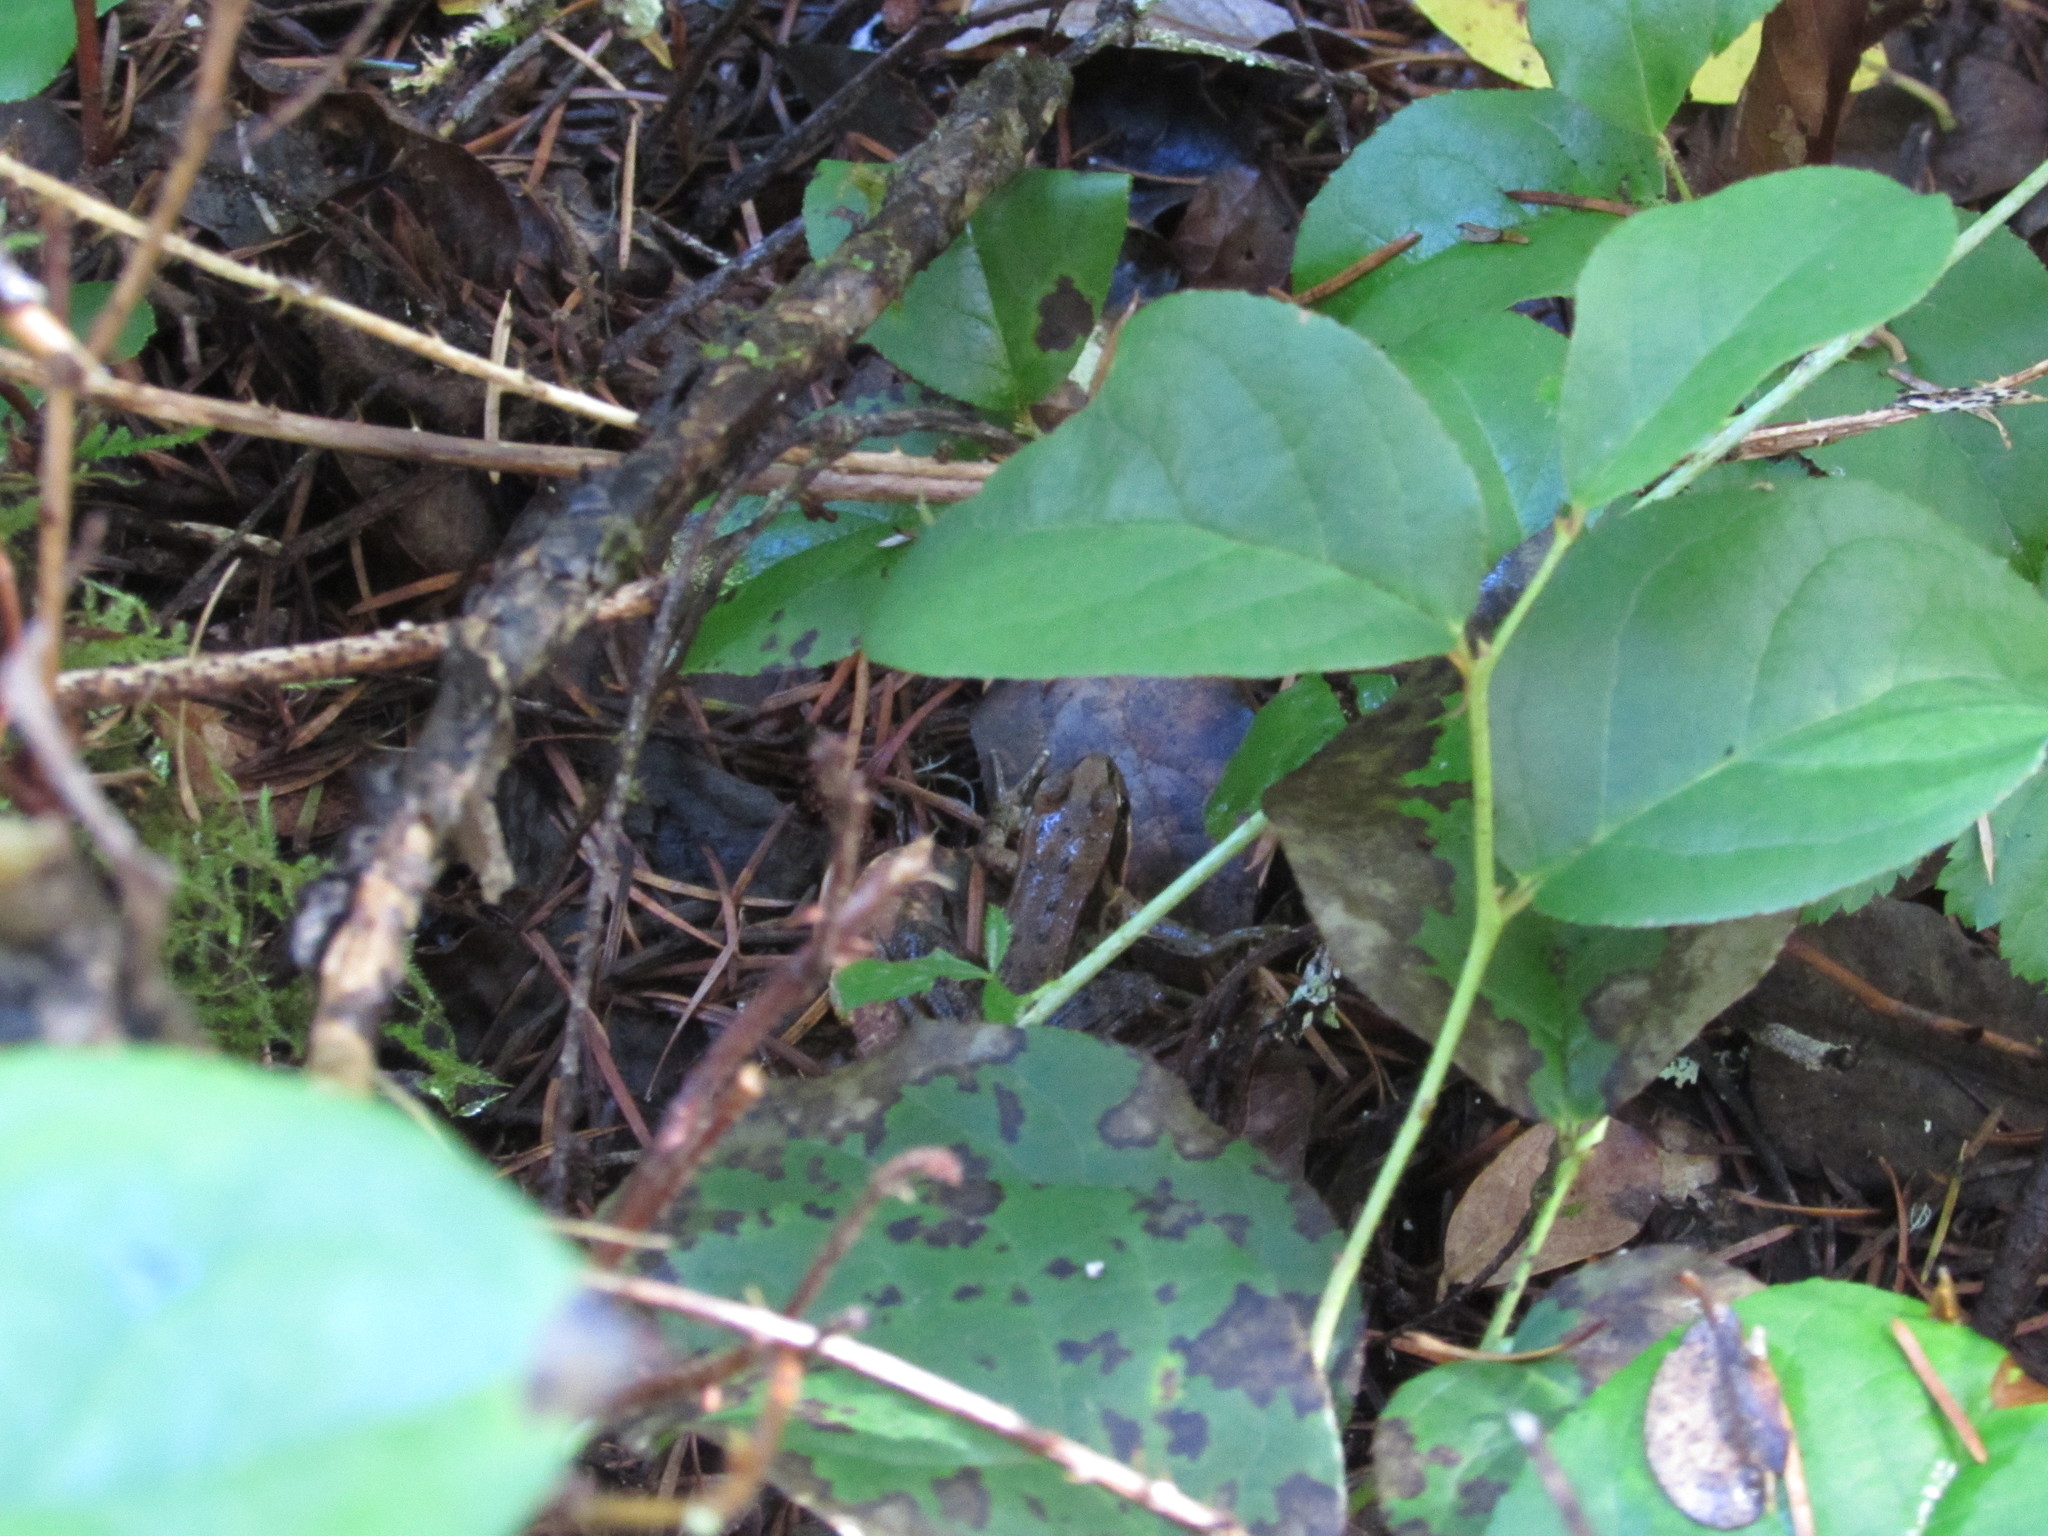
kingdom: Animalia
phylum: Chordata
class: Amphibia
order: Anura
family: Ranidae
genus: Rana
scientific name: Rana aurora
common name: Red-legged frog
